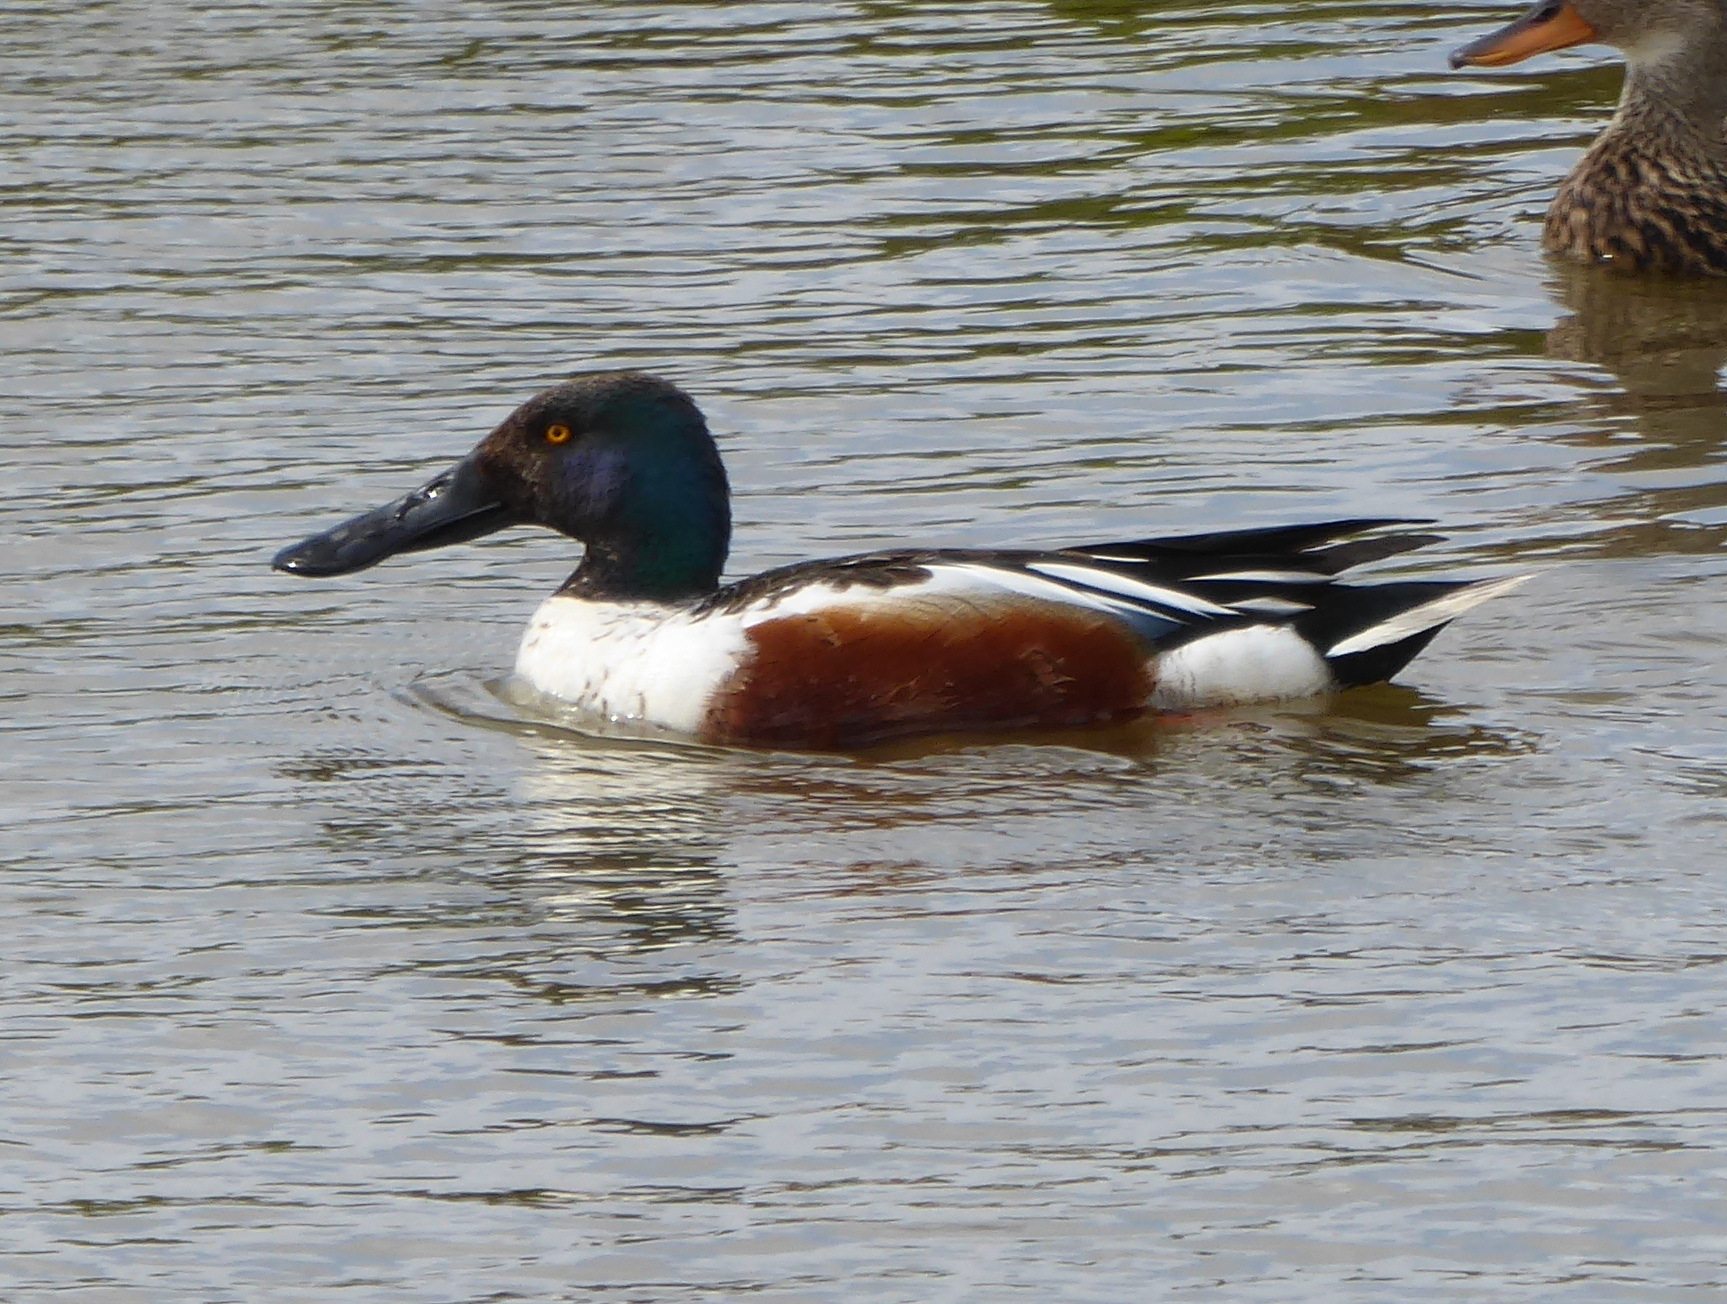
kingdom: Animalia
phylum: Chordata
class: Aves
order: Anseriformes
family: Anatidae
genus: Spatula
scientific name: Spatula clypeata
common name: Northern shoveler
